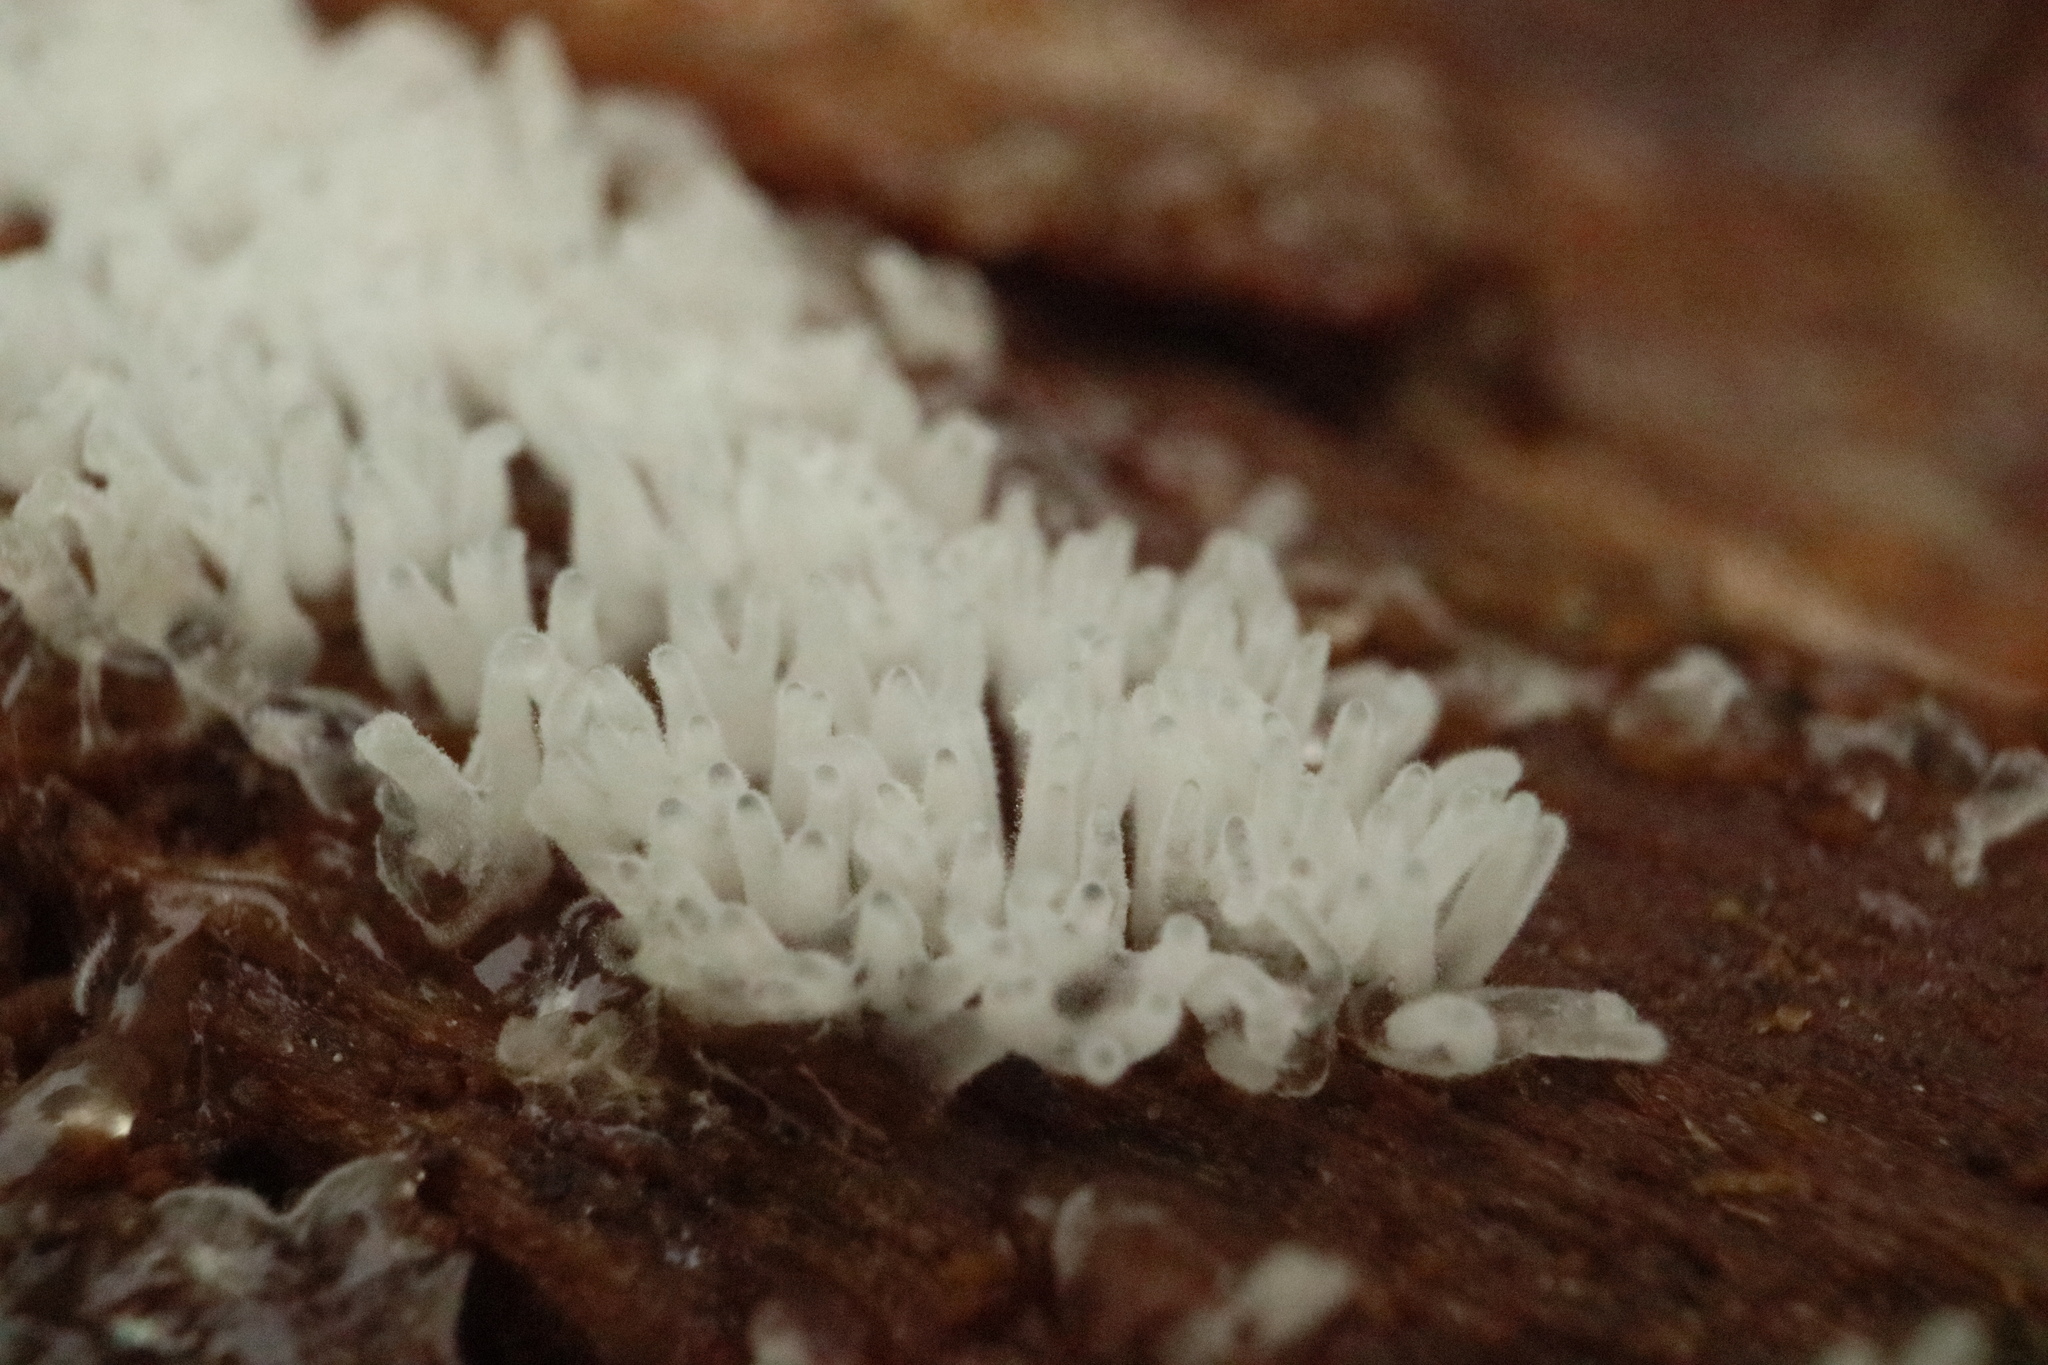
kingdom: Protozoa
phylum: Mycetozoa
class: Protosteliomycetes
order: Ceratiomyxales
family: Ceratiomyxaceae
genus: Ceratiomyxa
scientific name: Ceratiomyxa fruticulosa
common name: Honeycomb coral slime mold
